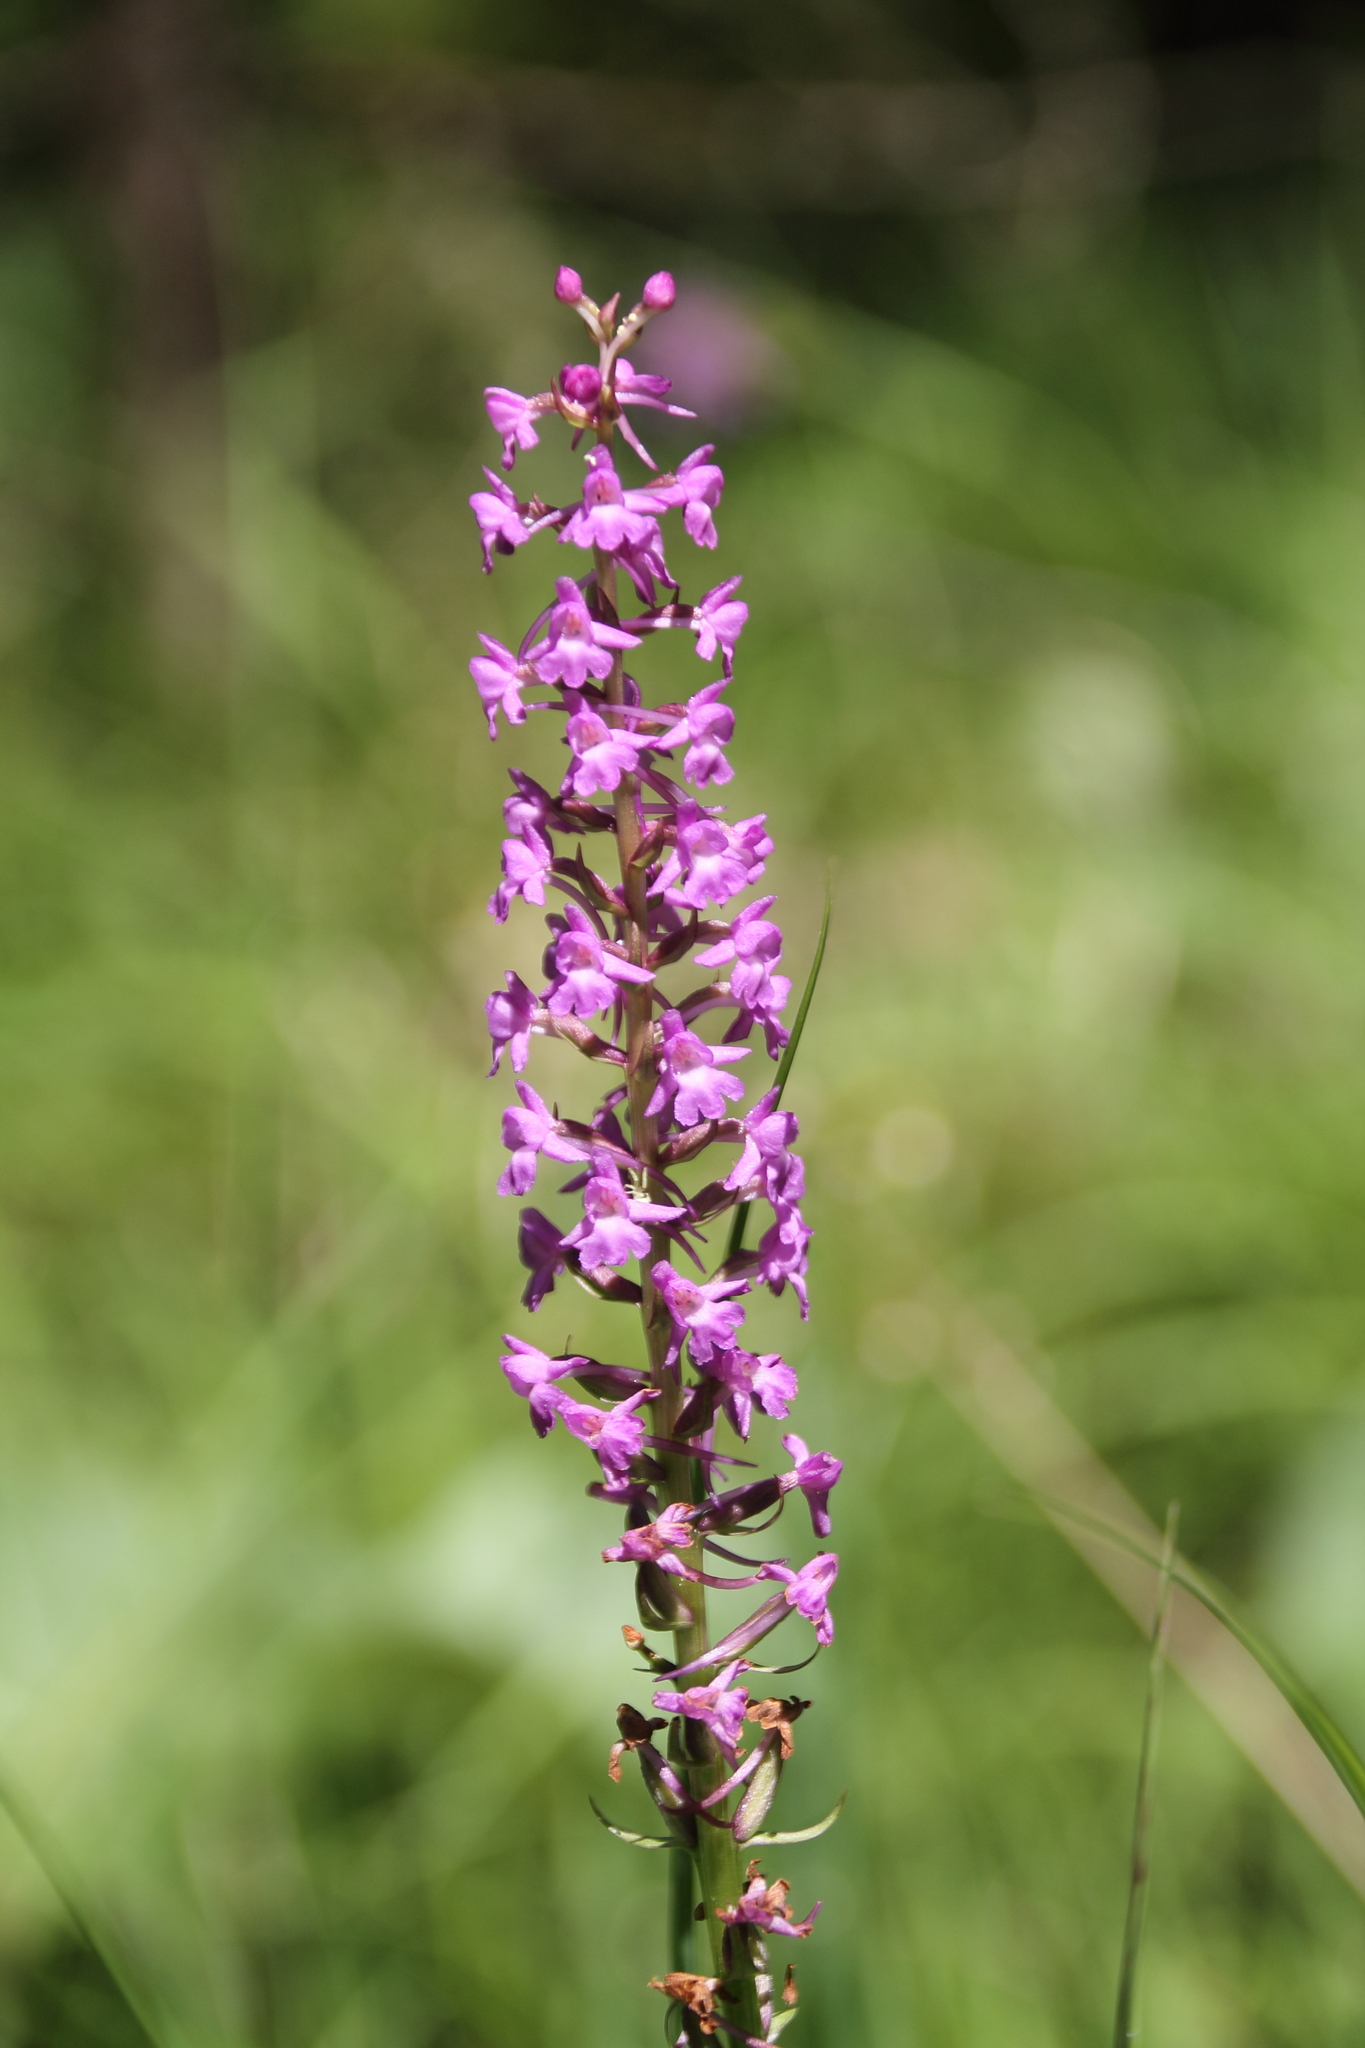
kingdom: Plantae
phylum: Tracheophyta
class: Liliopsida
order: Asparagales
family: Orchidaceae
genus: Gymnadenia
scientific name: Gymnadenia conopsea
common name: Fragrant orchid
